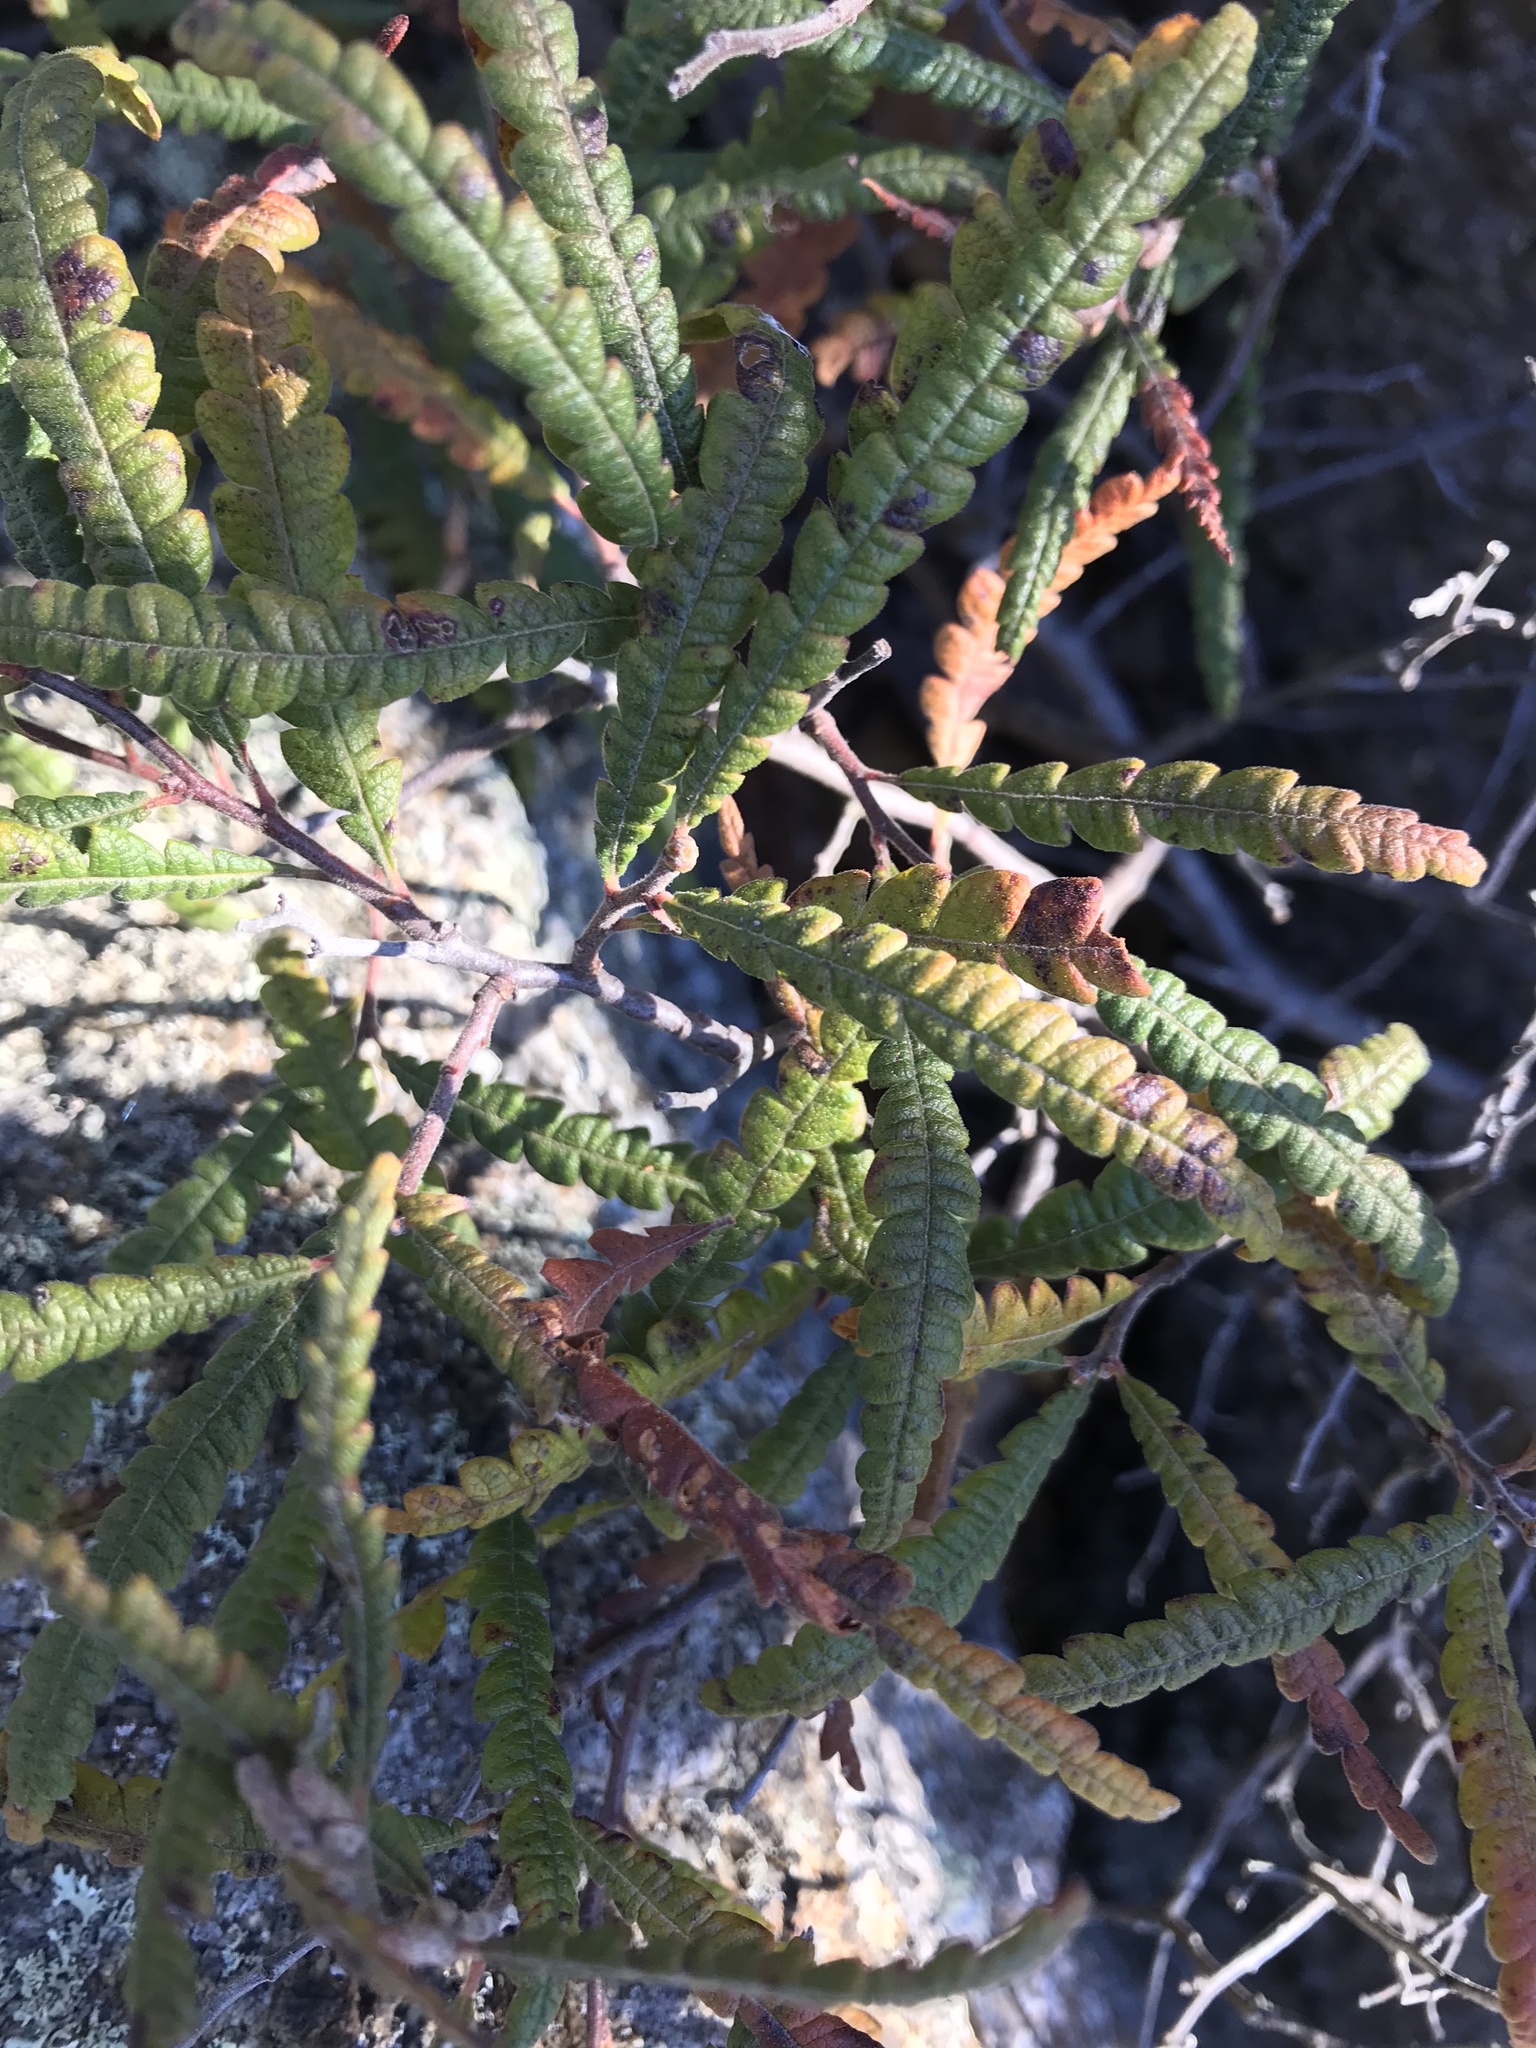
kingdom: Plantae
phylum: Tracheophyta
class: Magnoliopsida
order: Fagales
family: Myricaceae
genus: Comptonia
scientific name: Comptonia peregrina
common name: Sweet-fern
